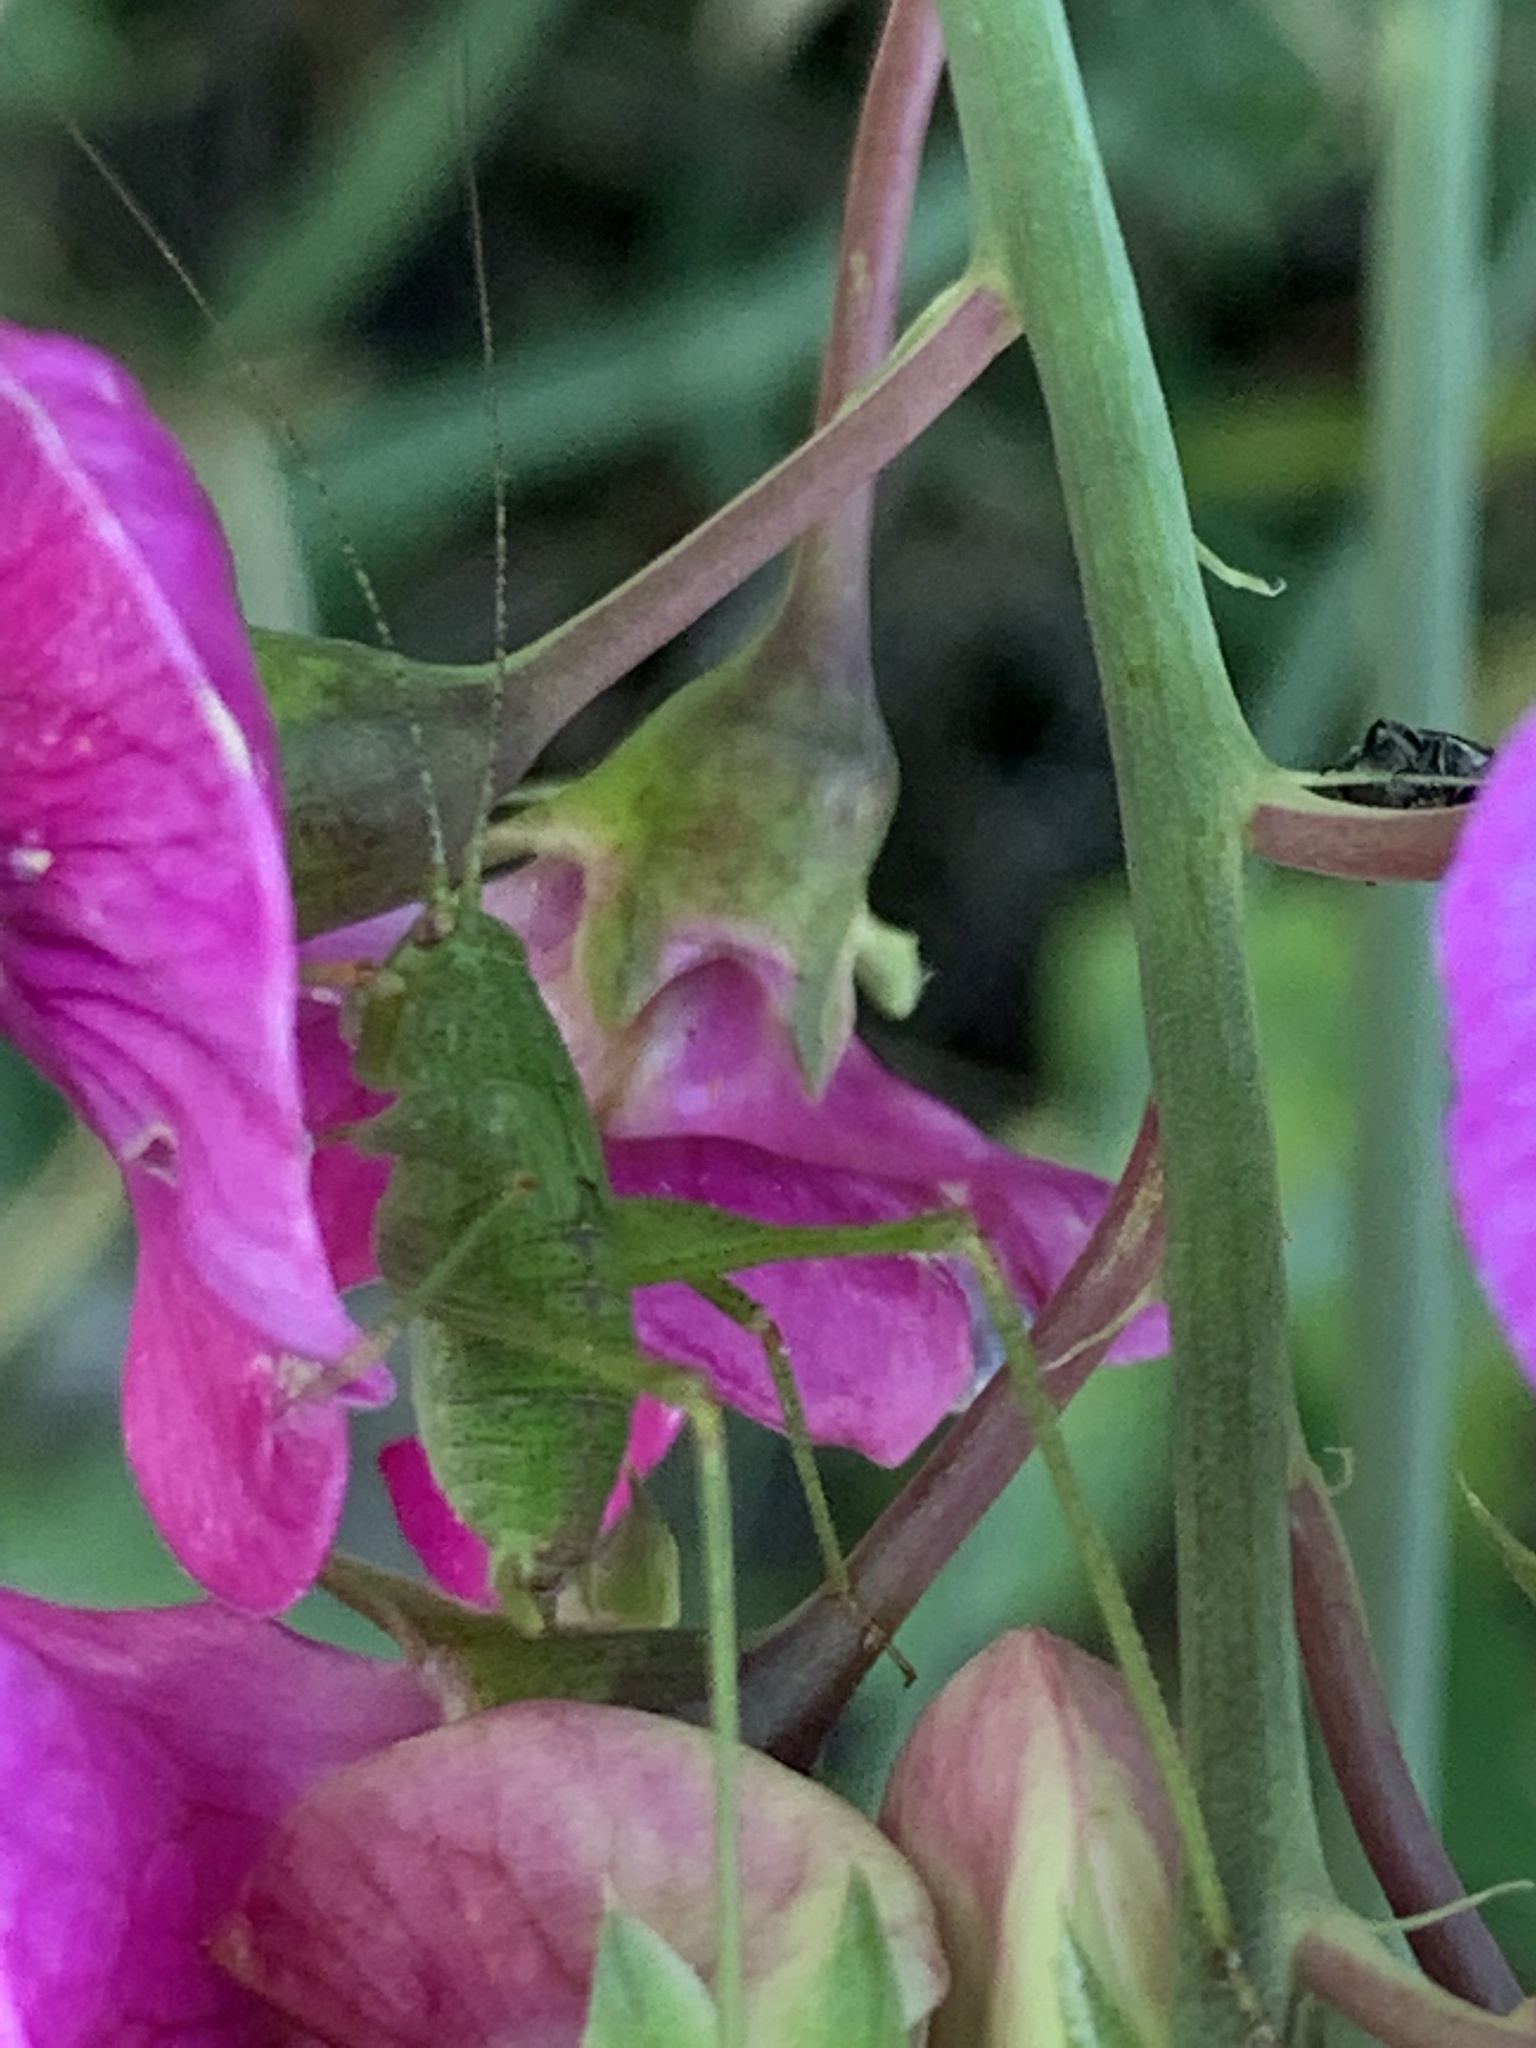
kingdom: Animalia
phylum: Arthropoda
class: Insecta
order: Orthoptera
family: Tettigoniidae
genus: Phaneroptera
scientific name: Phaneroptera nana
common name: Southern sickle bush-cricket
